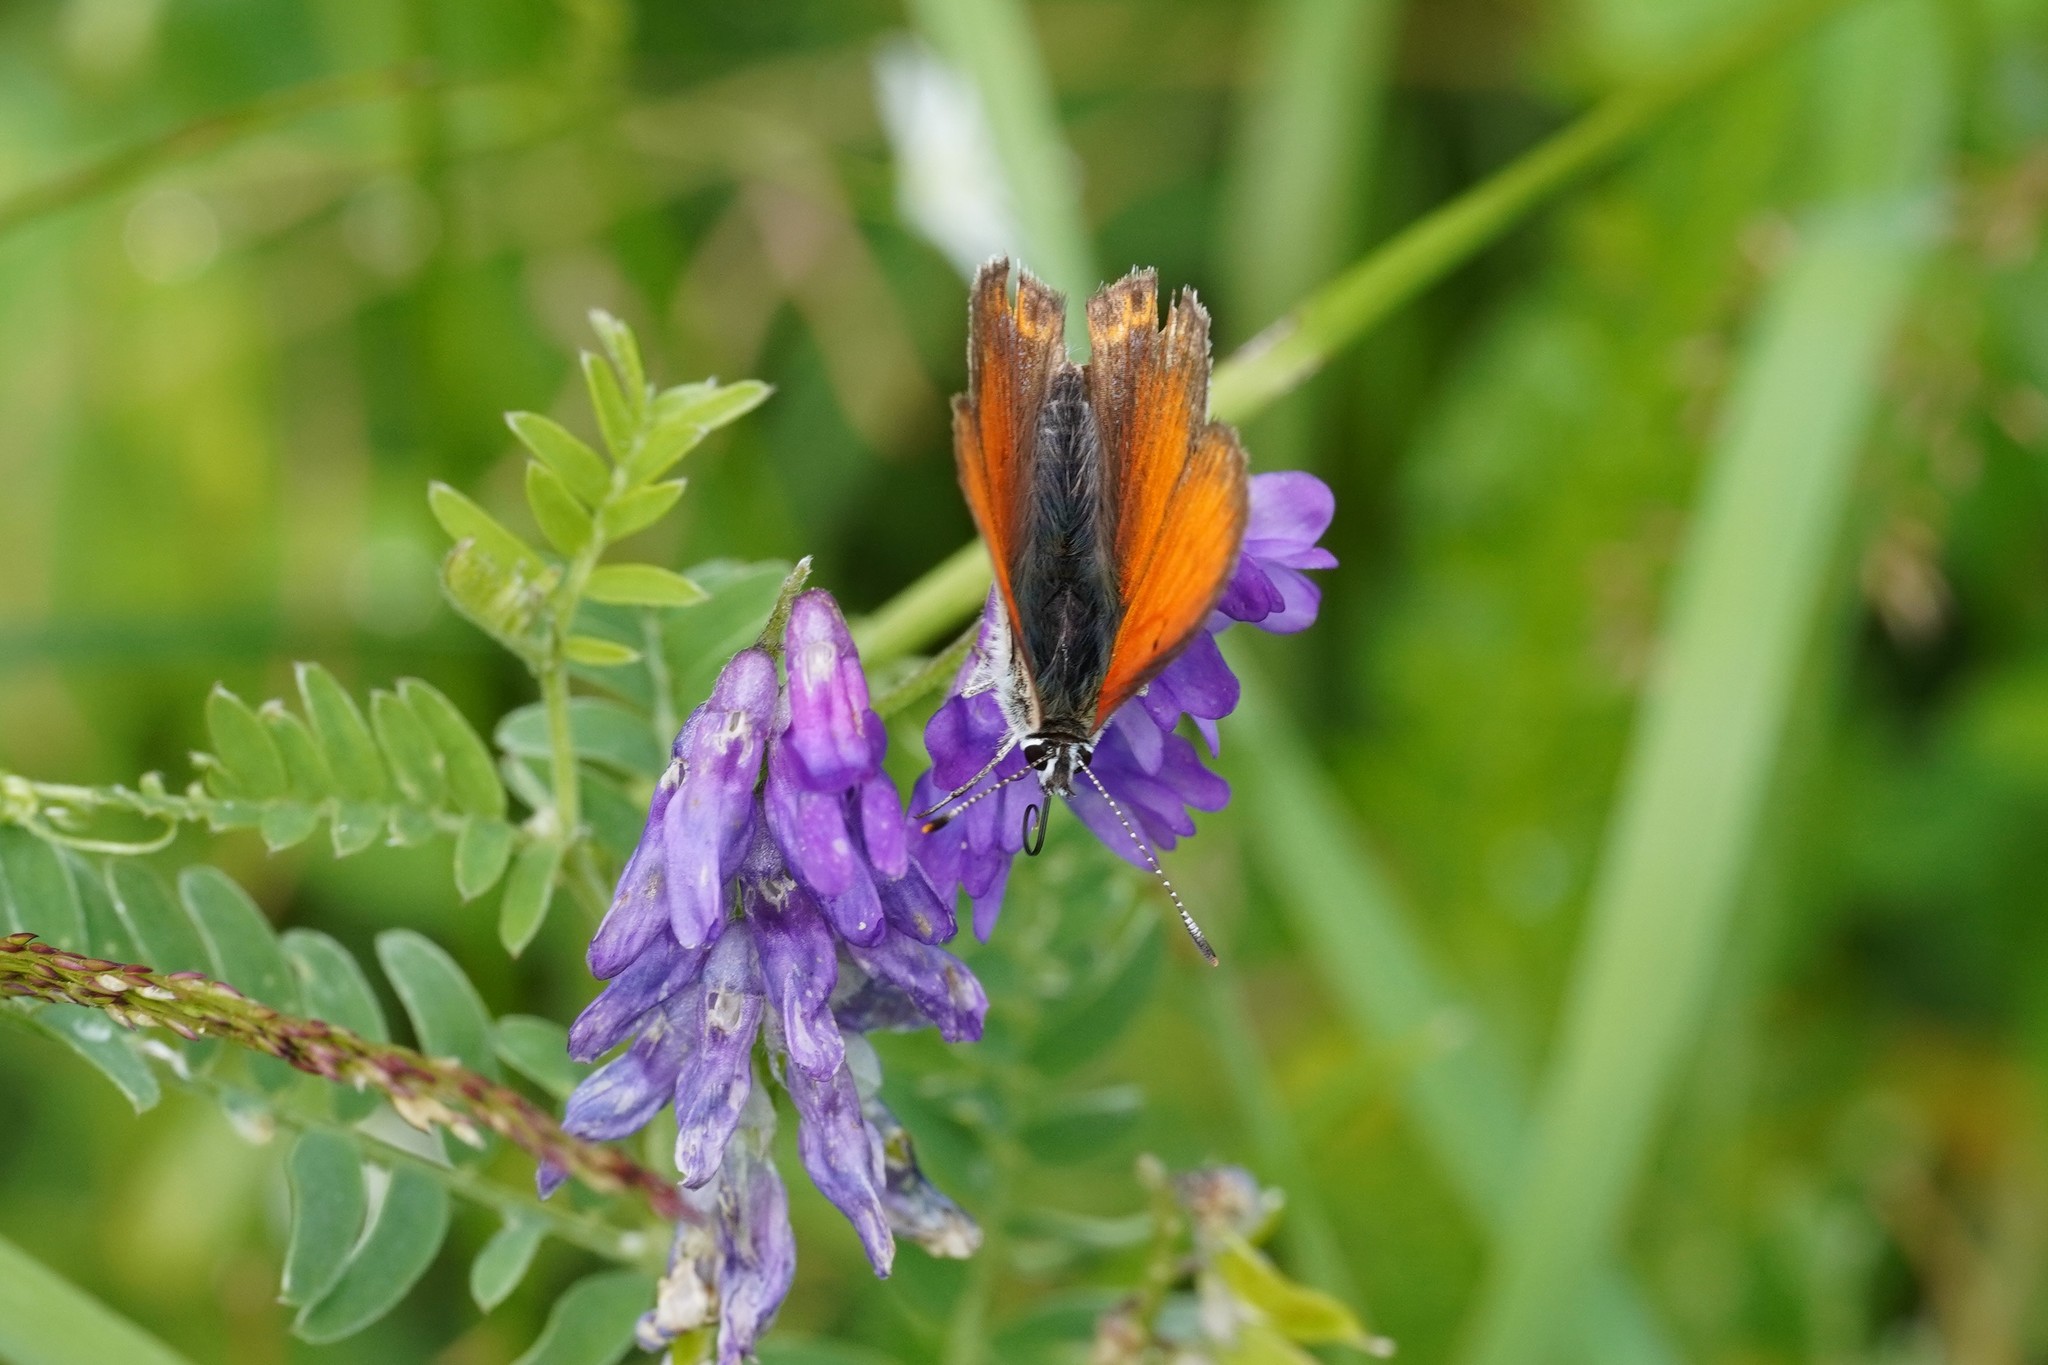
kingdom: Animalia
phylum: Arthropoda
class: Insecta
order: Lepidoptera
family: Lycaenidae
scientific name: Lycaenidae
